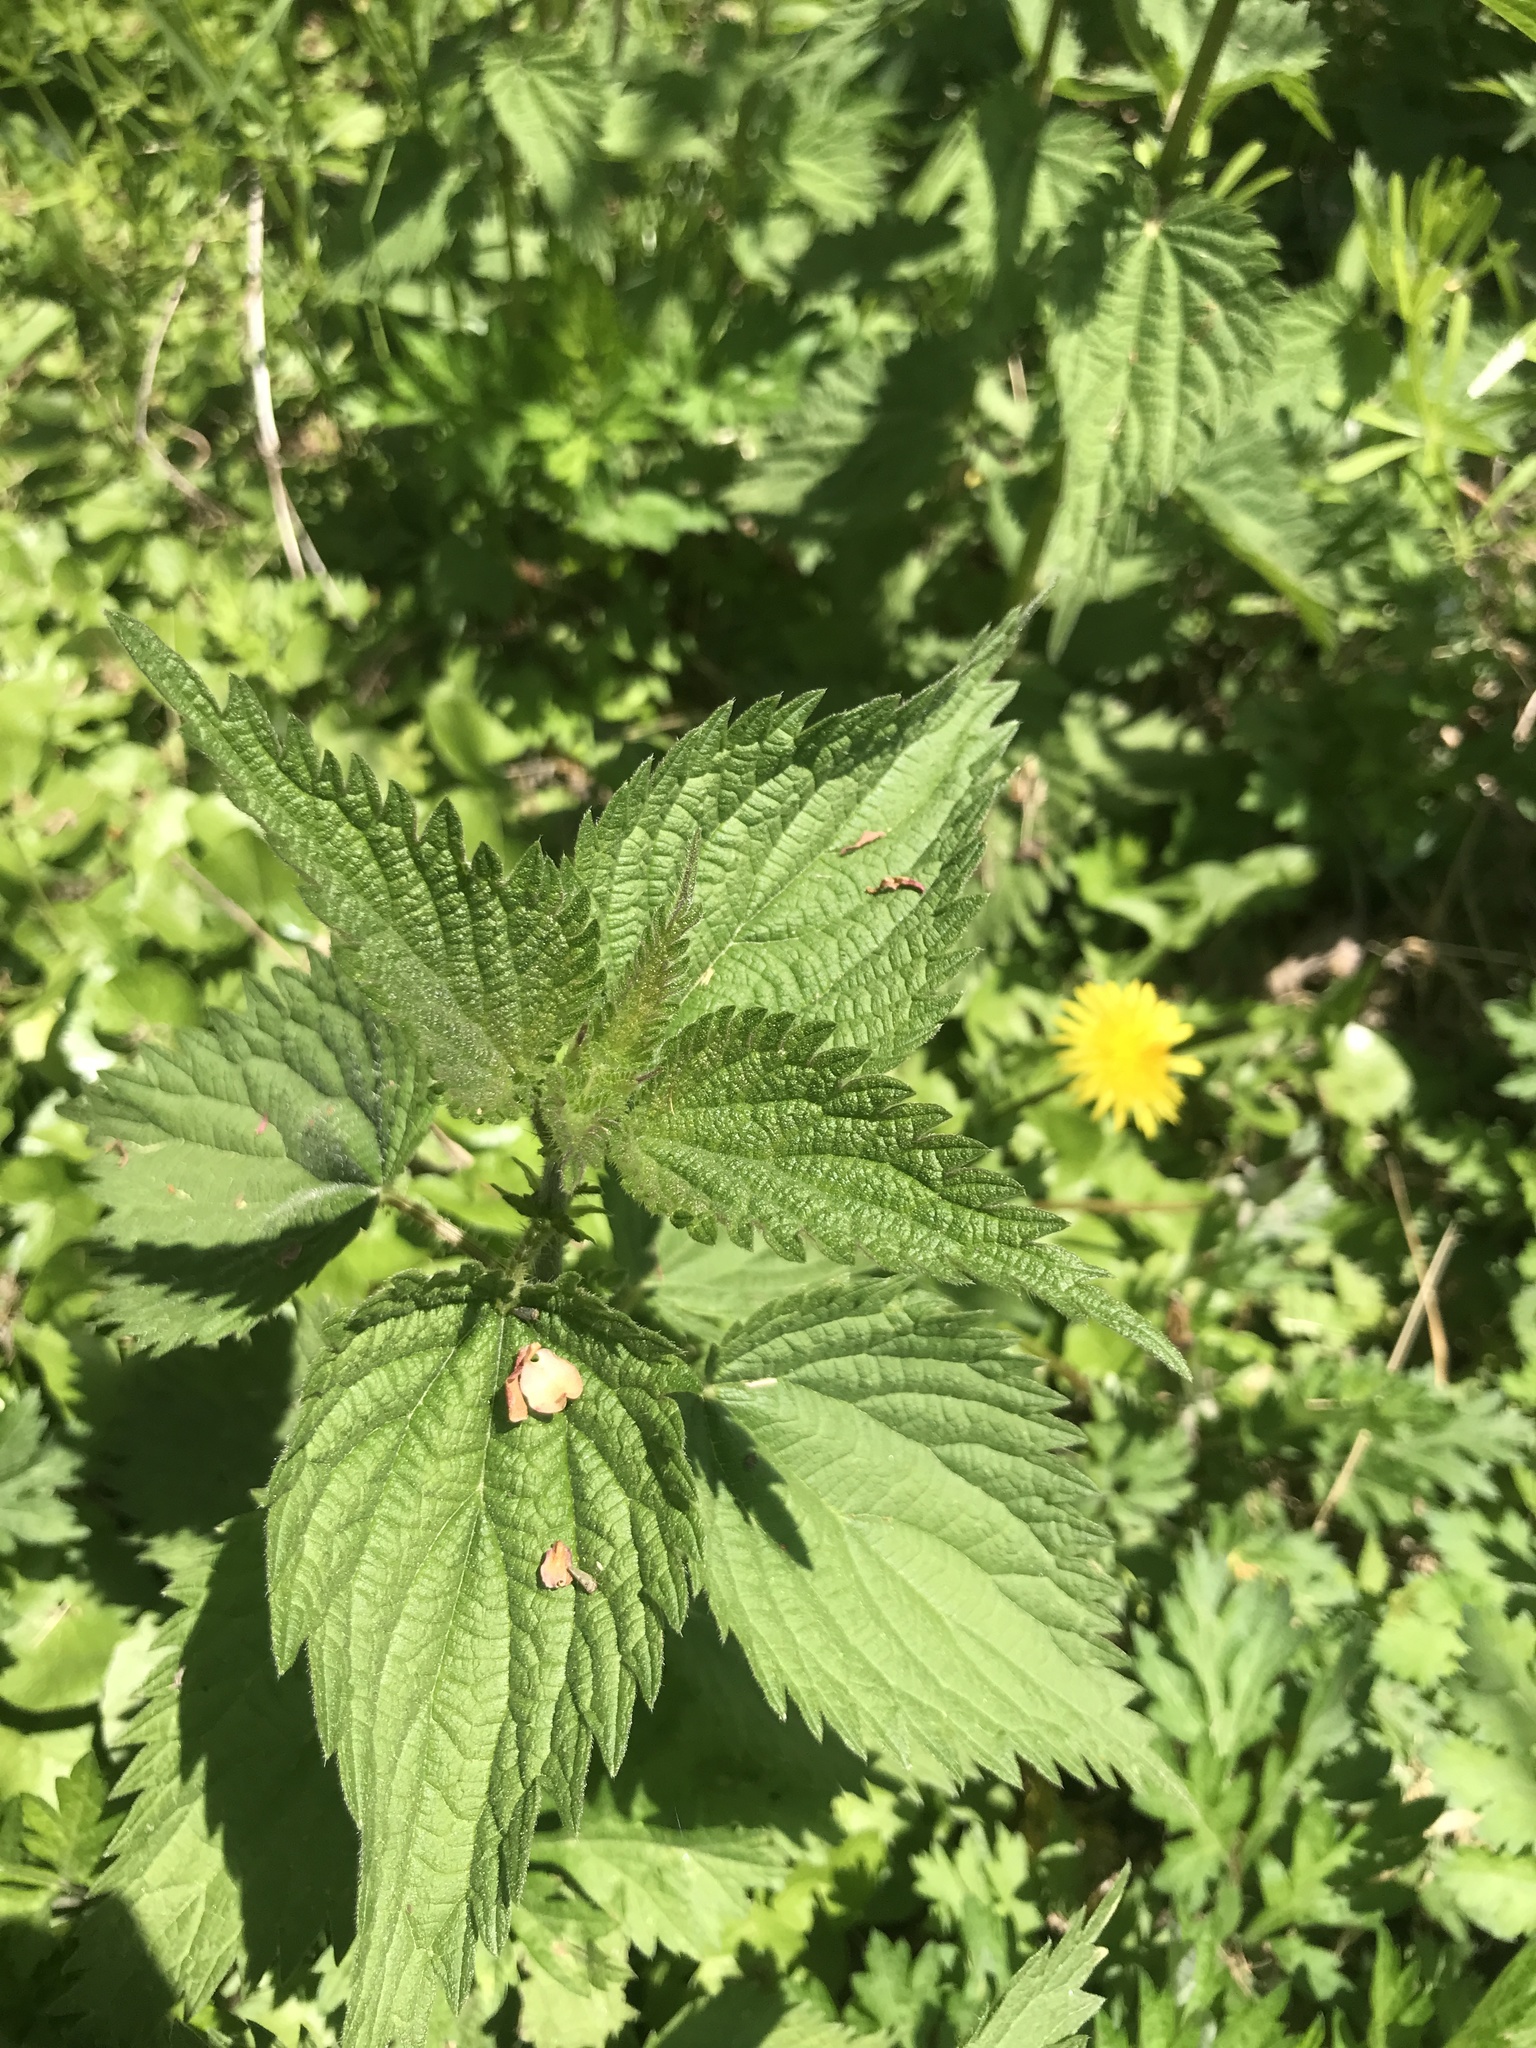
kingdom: Plantae
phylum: Tracheophyta
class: Magnoliopsida
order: Rosales
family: Urticaceae
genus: Urtica
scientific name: Urtica dioica
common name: Common nettle
